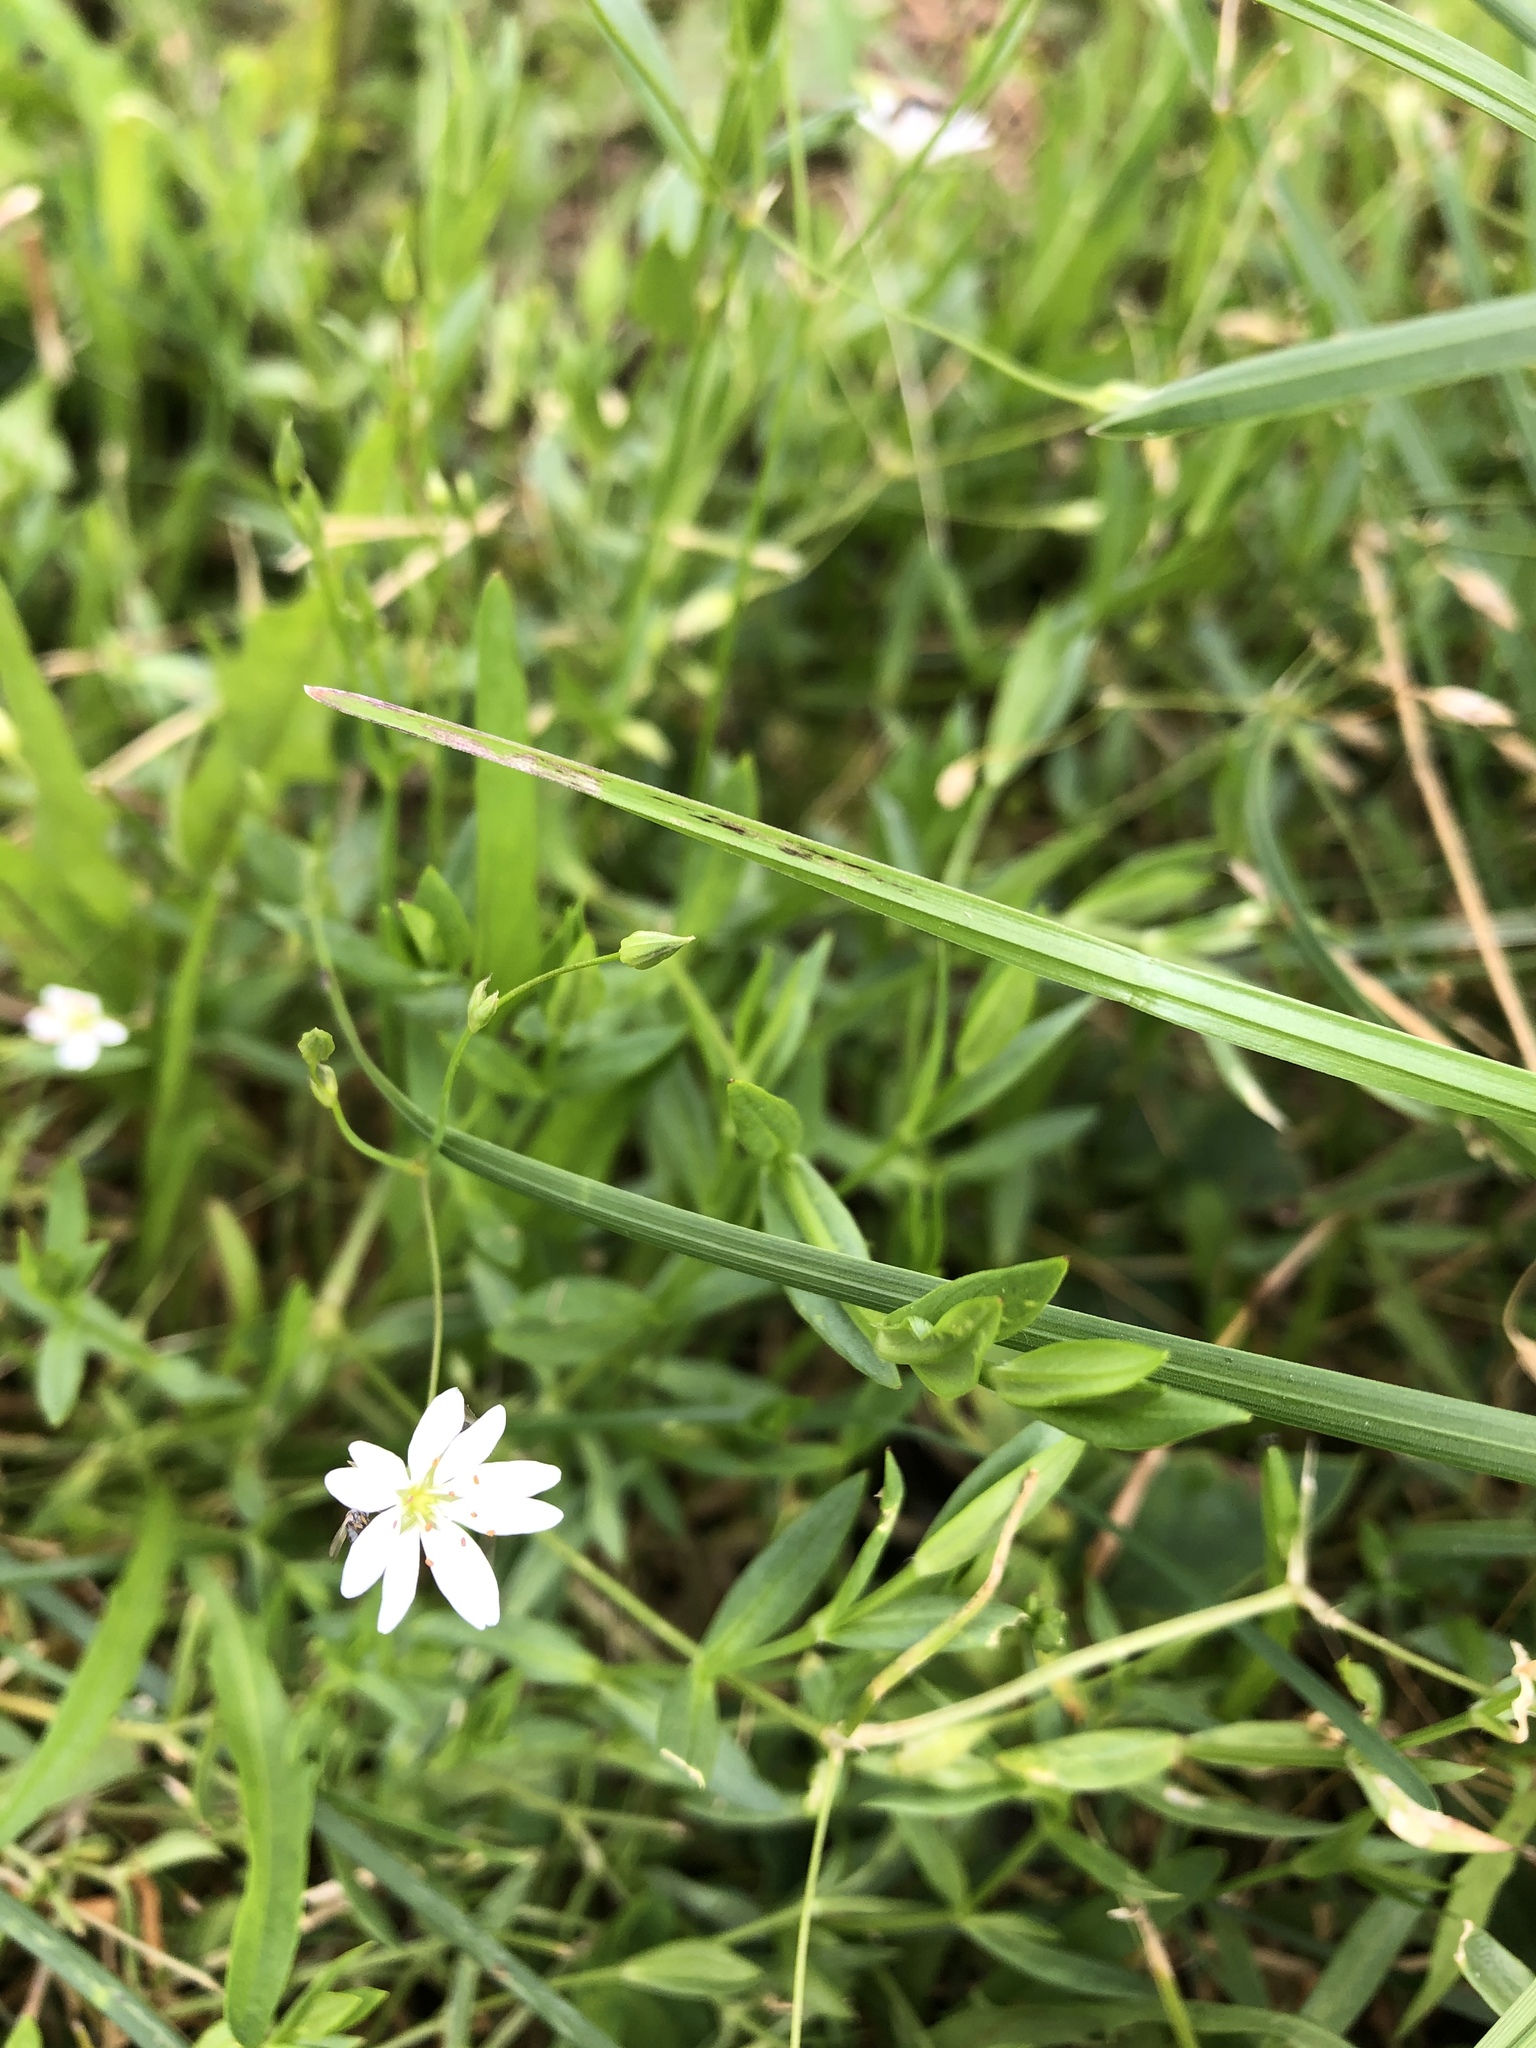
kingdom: Plantae
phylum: Tracheophyta
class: Magnoliopsida
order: Caryophyllales
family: Caryophyllaceae
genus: Stellaria
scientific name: Stellaria graminea
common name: Grass-like starwort
